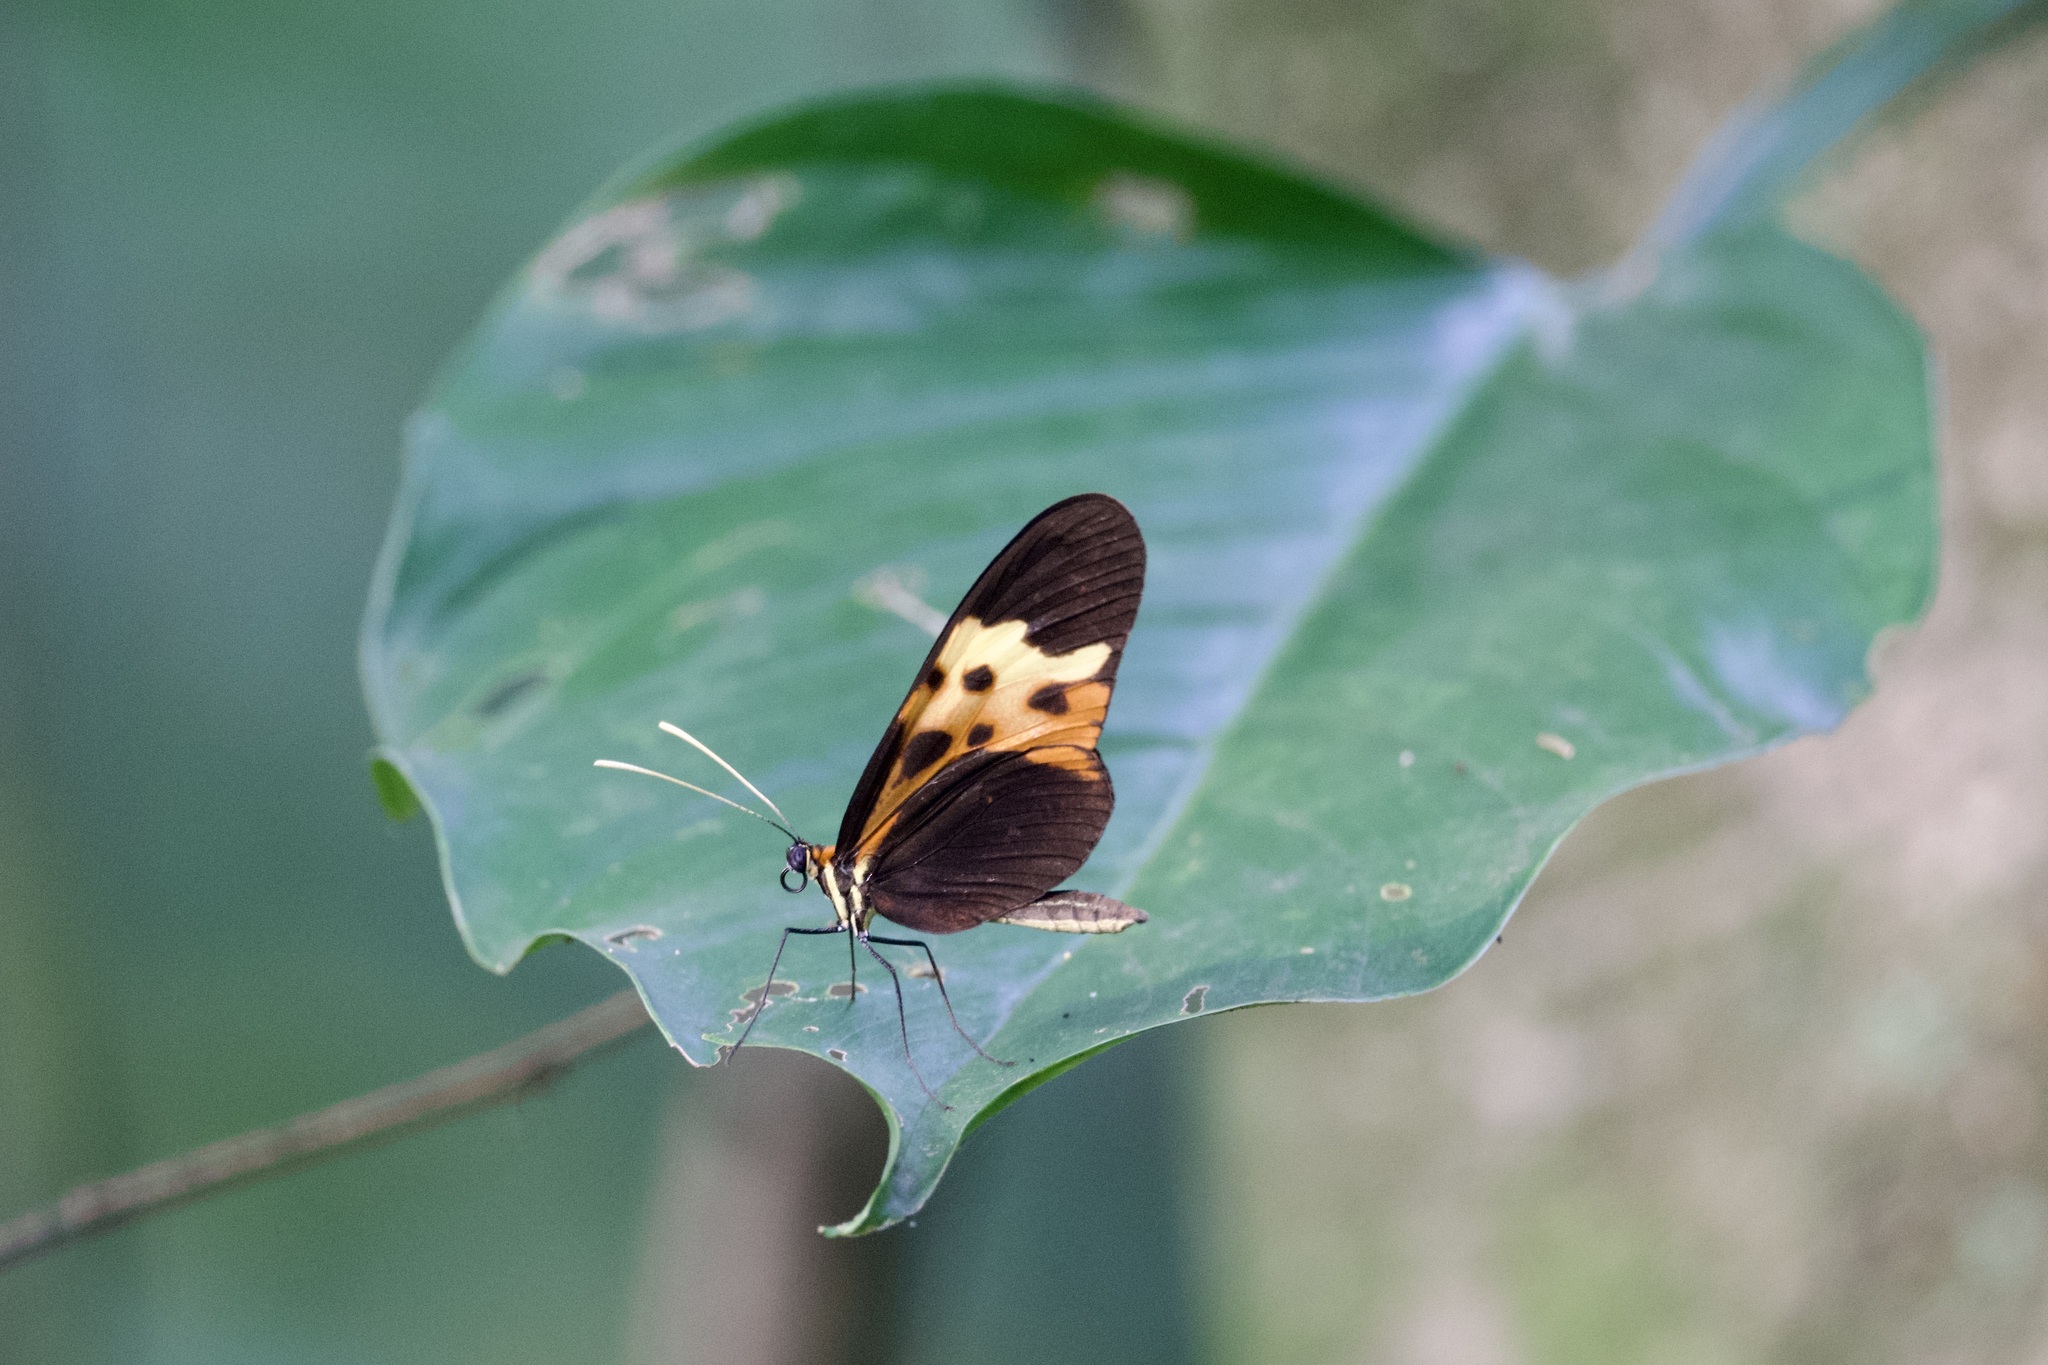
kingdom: Animalia
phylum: Arthropoda
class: Insecta
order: Lepidoptera
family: Nymphalidae
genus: Mechanitis
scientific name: Mechanitis mazaeus
